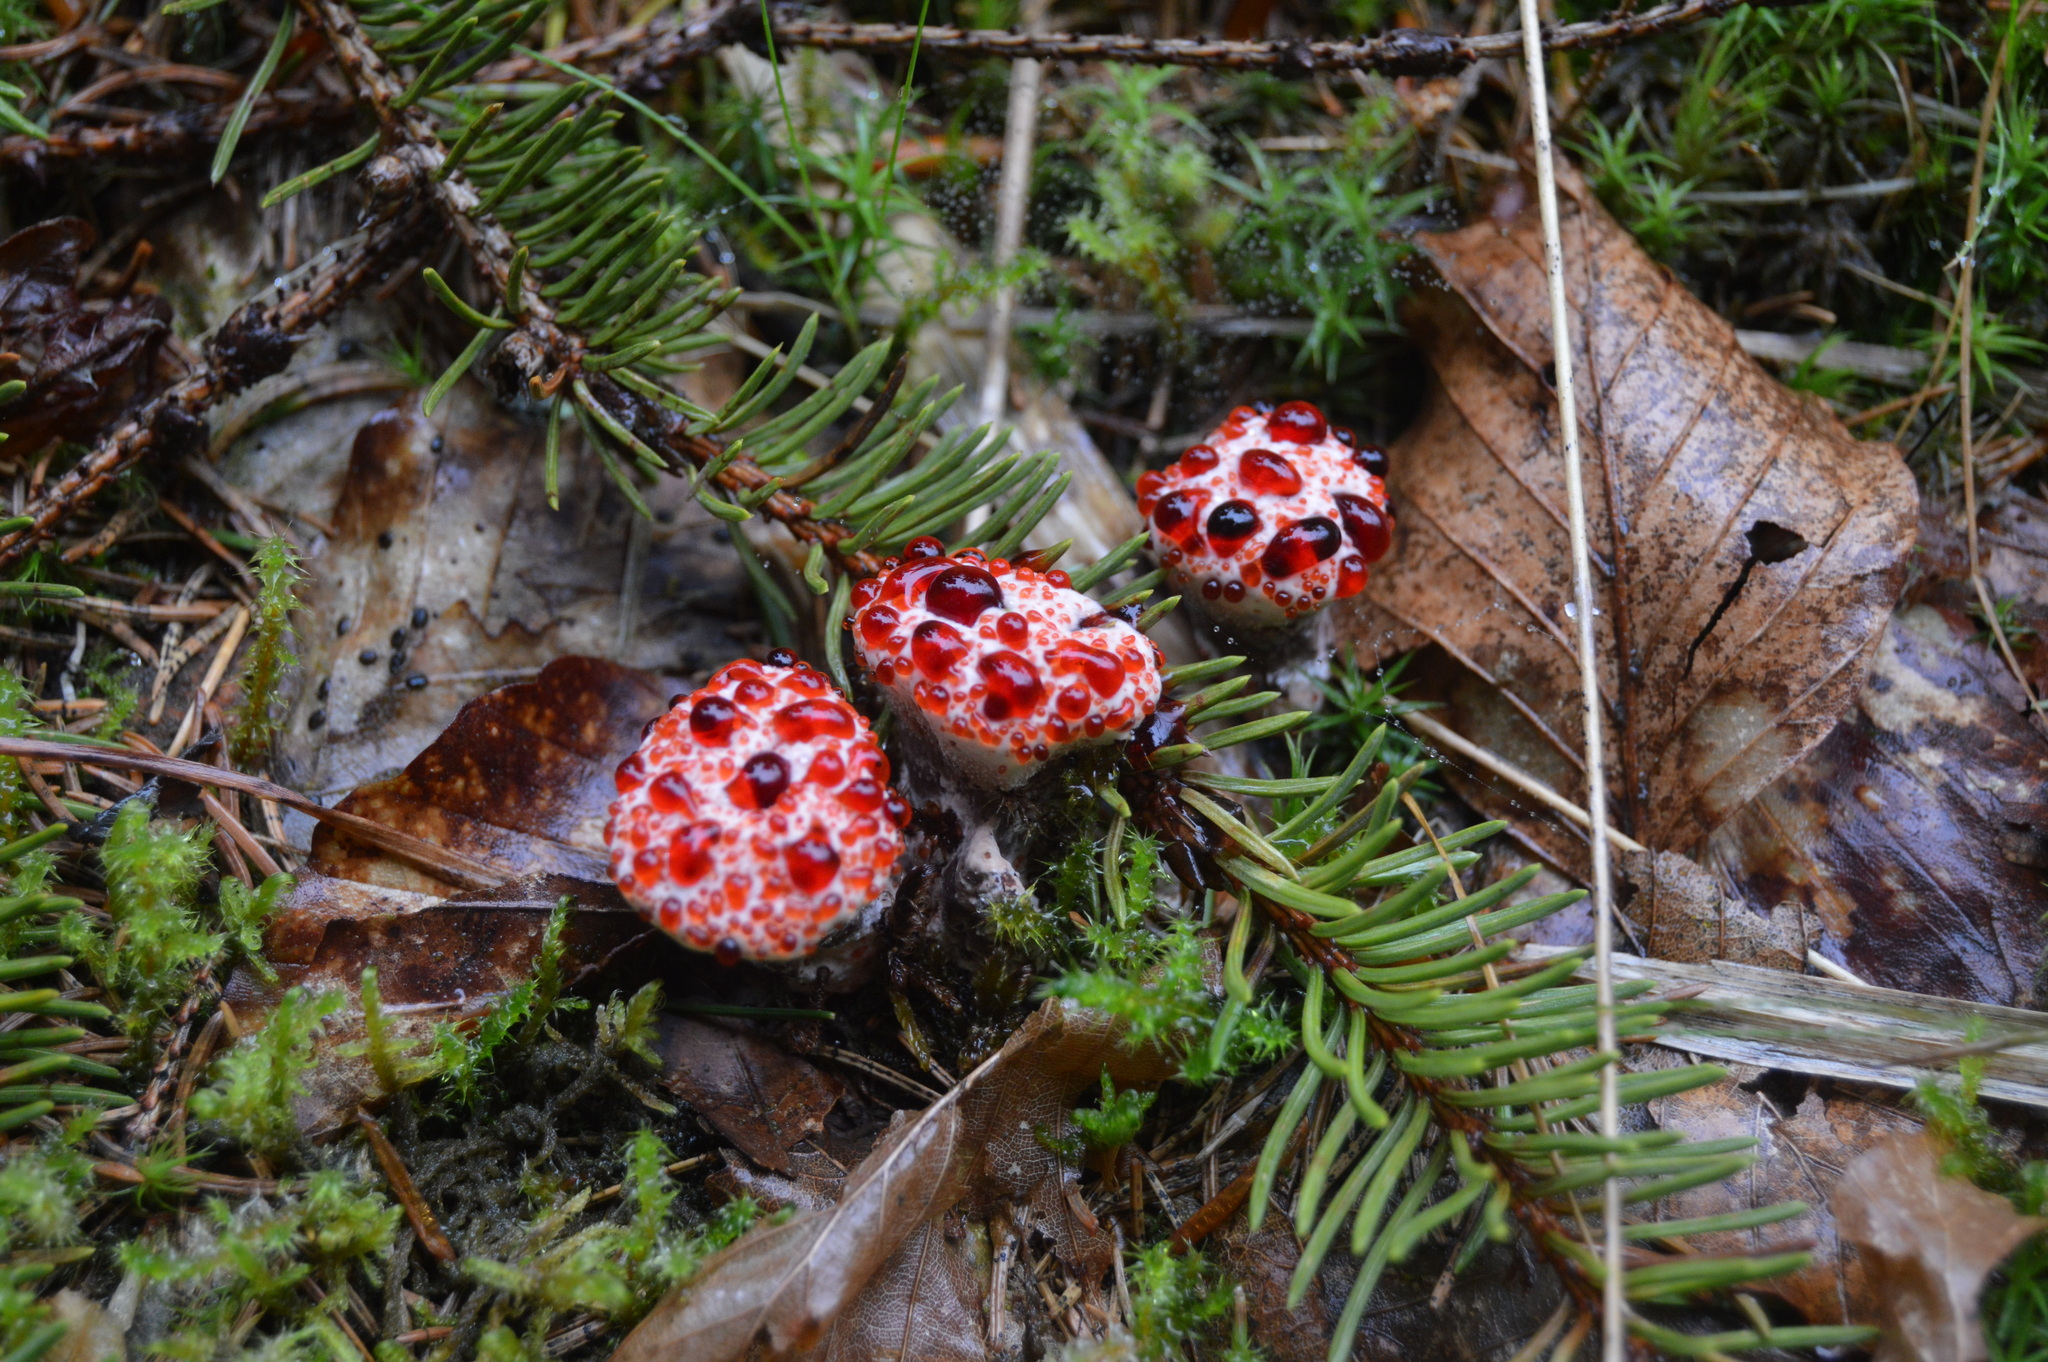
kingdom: Fungi
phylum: Basidiomycota
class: Agaricomycetes
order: Thelephorales
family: Bankeraceae
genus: Hydnellum
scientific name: Hydnellum peckii
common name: Devil's tooth
